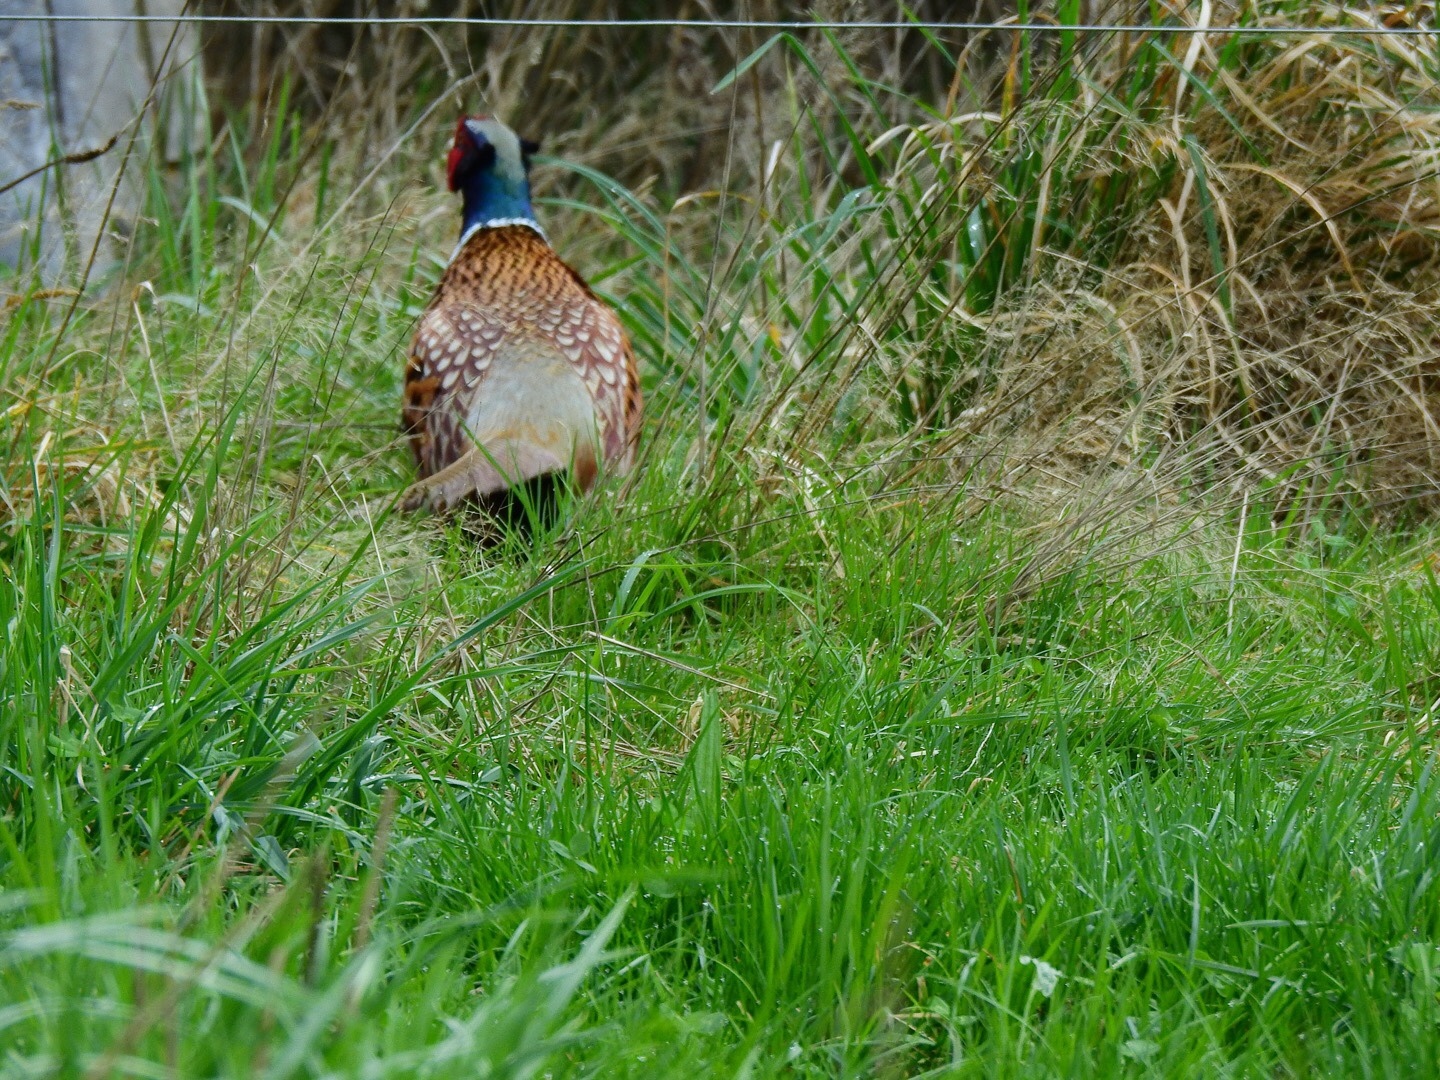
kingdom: Animalia
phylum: Chordata
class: Aves
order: Galliformes
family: Phasianidae
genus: Phasianus
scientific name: Phasianus colchicus
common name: Common pheasant
